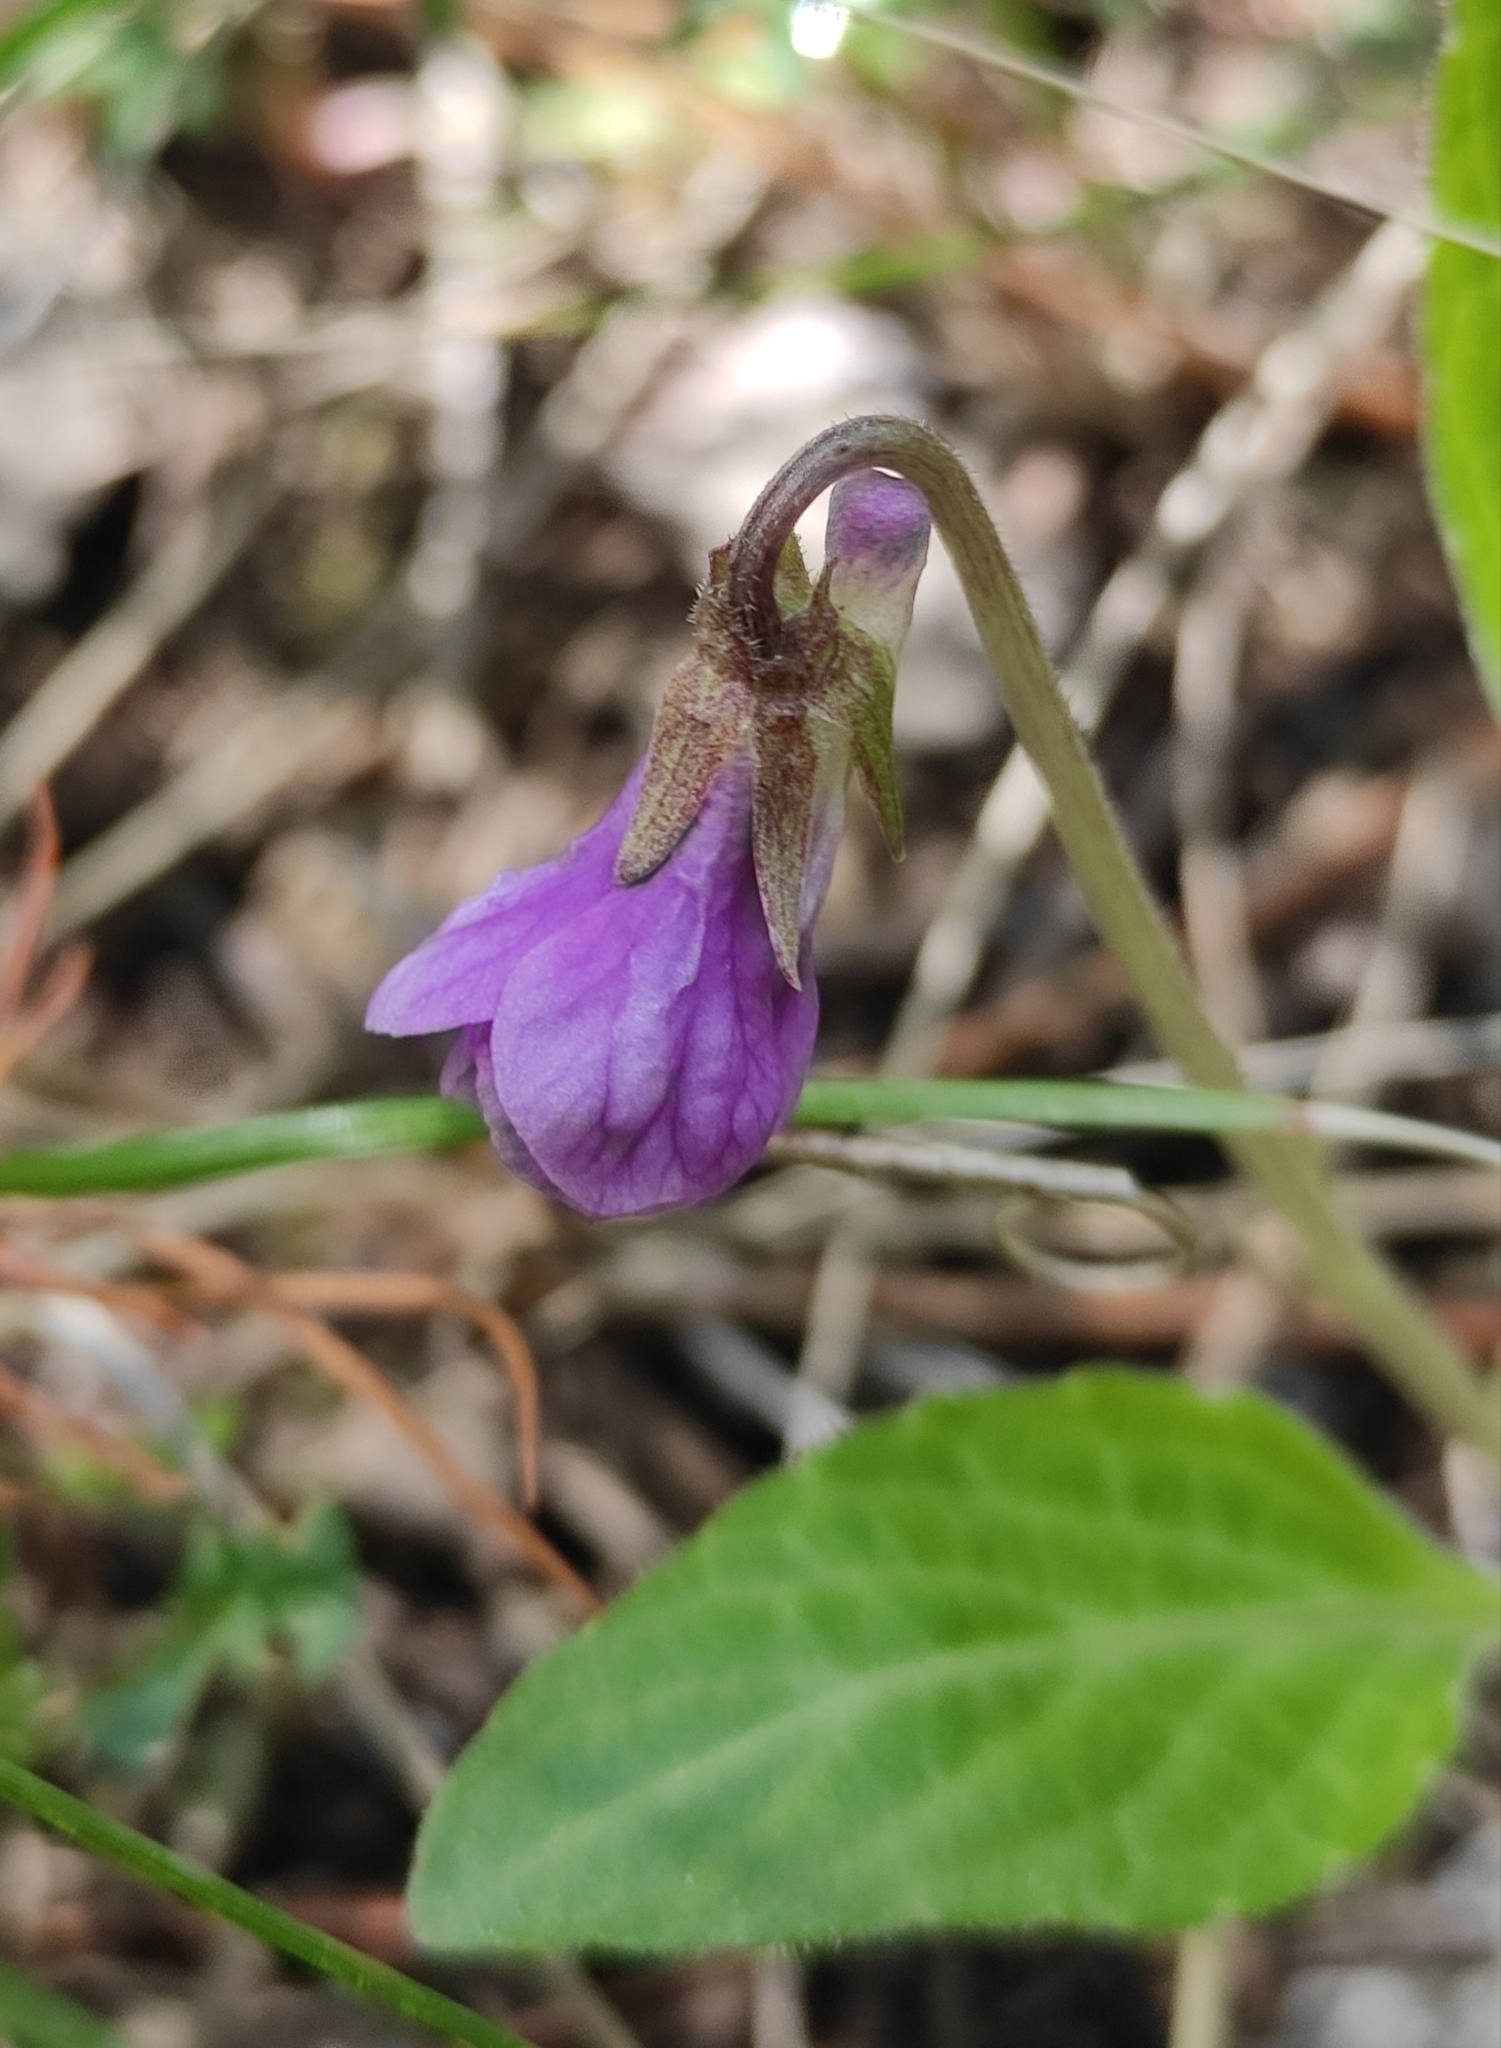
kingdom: Plantae
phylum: Tracheophyta
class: Magnoliopsida
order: Malpighiales
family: Violaceae
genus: Viola
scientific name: Viola gmeliniana
